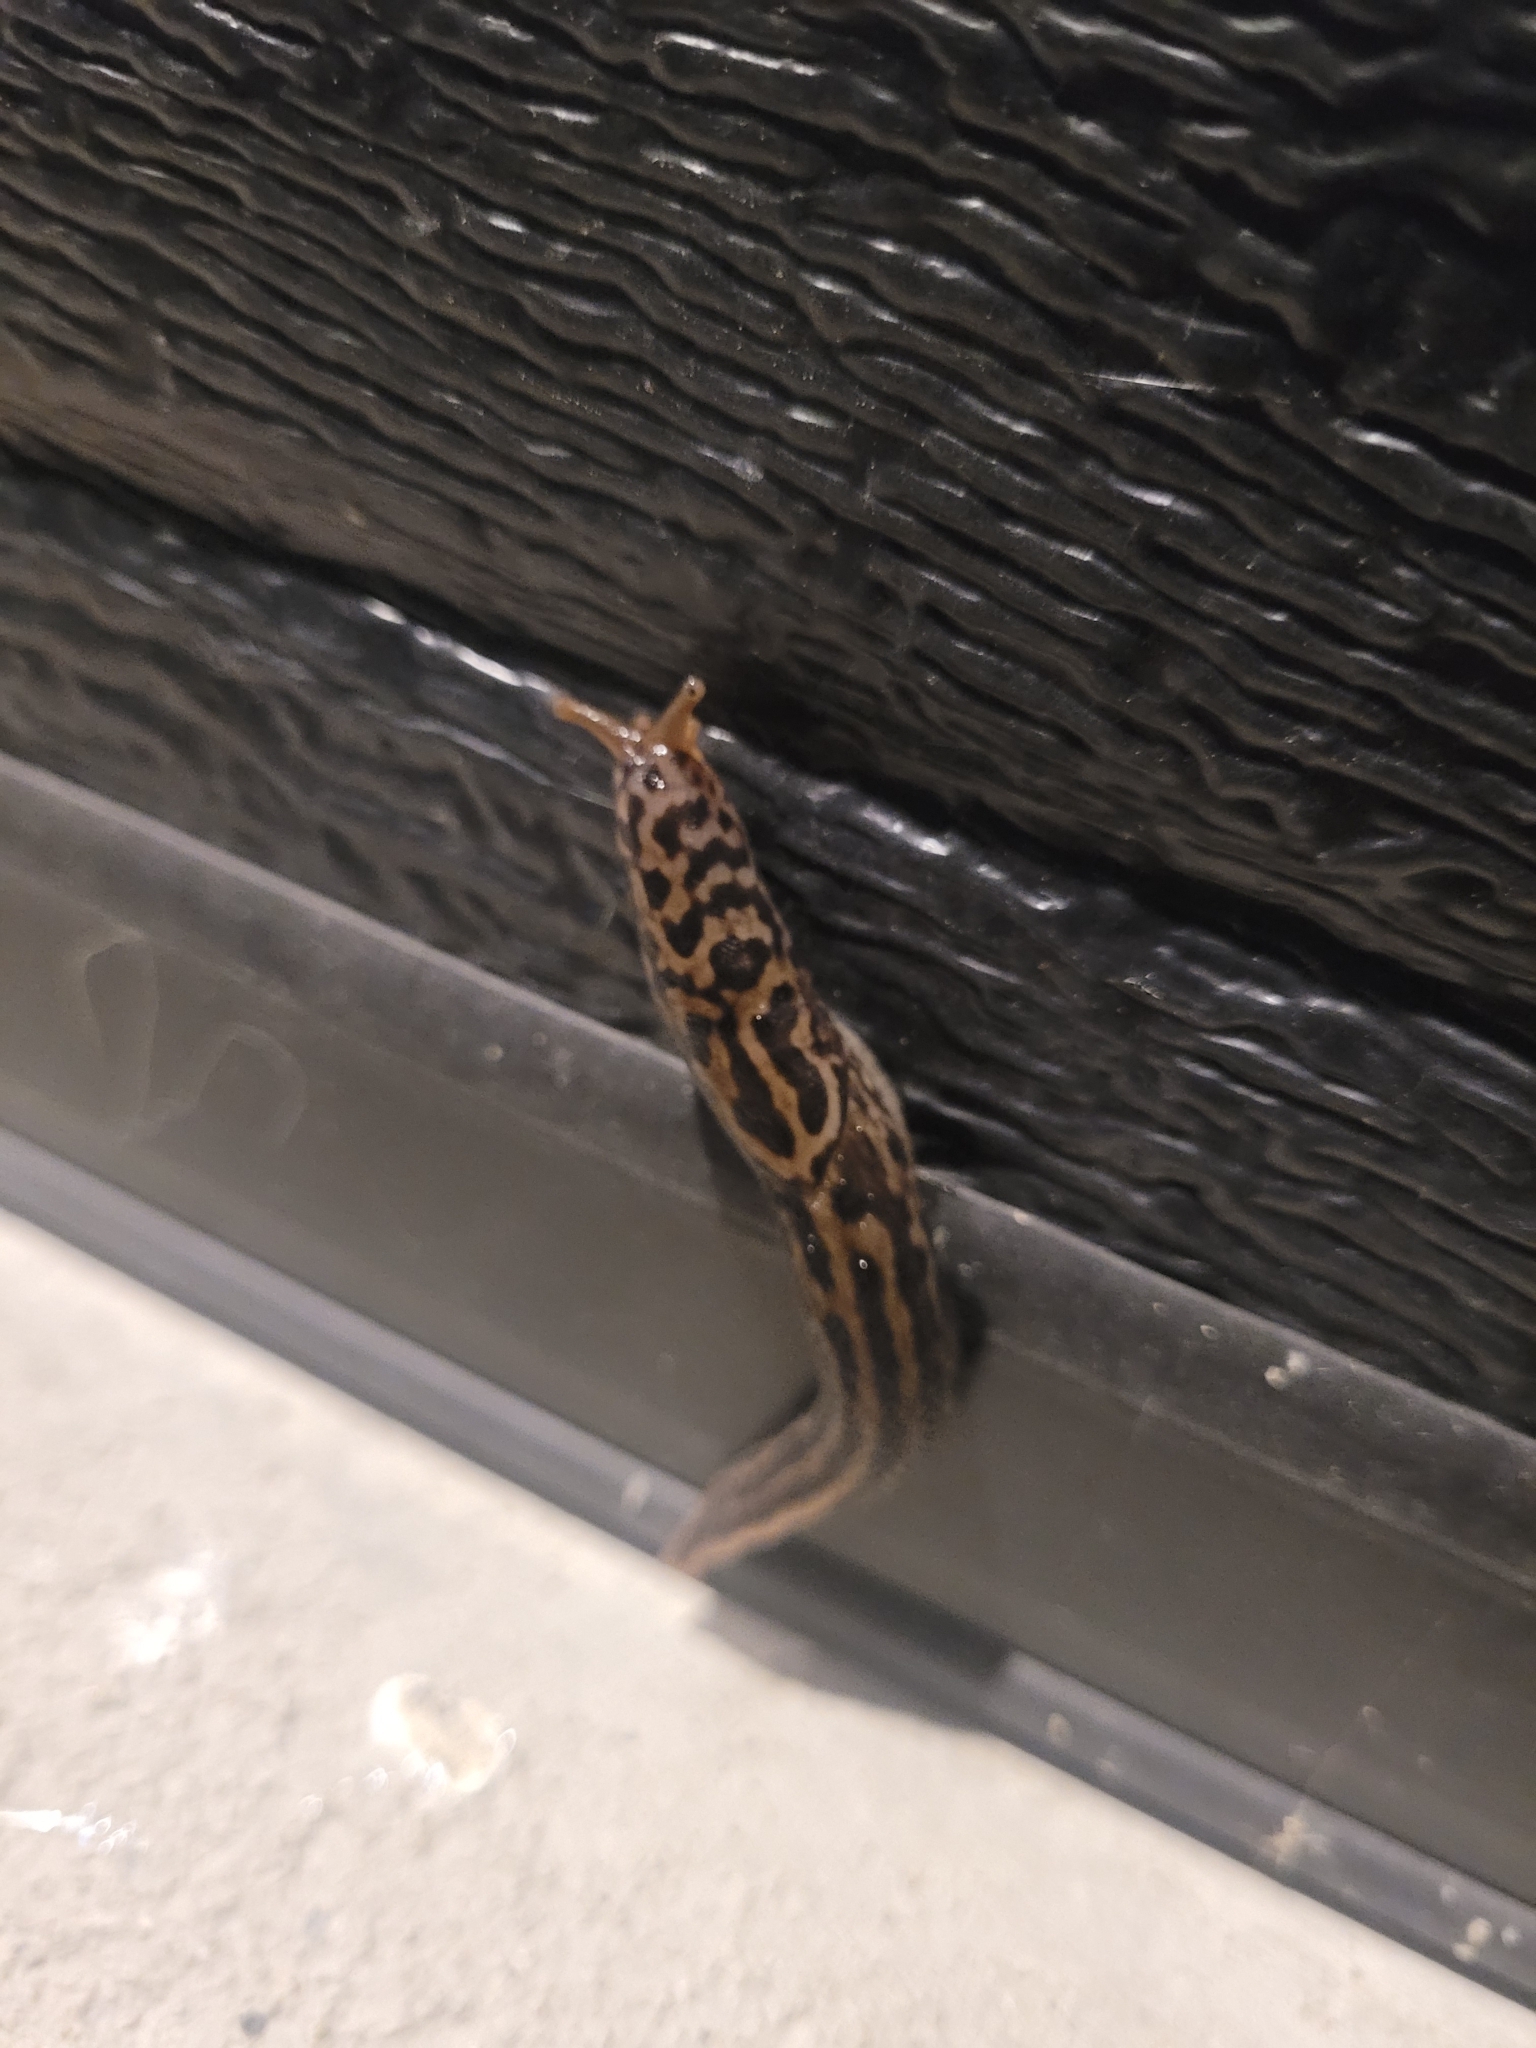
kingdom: Animalia
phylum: Mollusca
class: Gastropoda
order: Stylommatophora
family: Limacidae
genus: Limax
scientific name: Limax maximus
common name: Great grey slug
